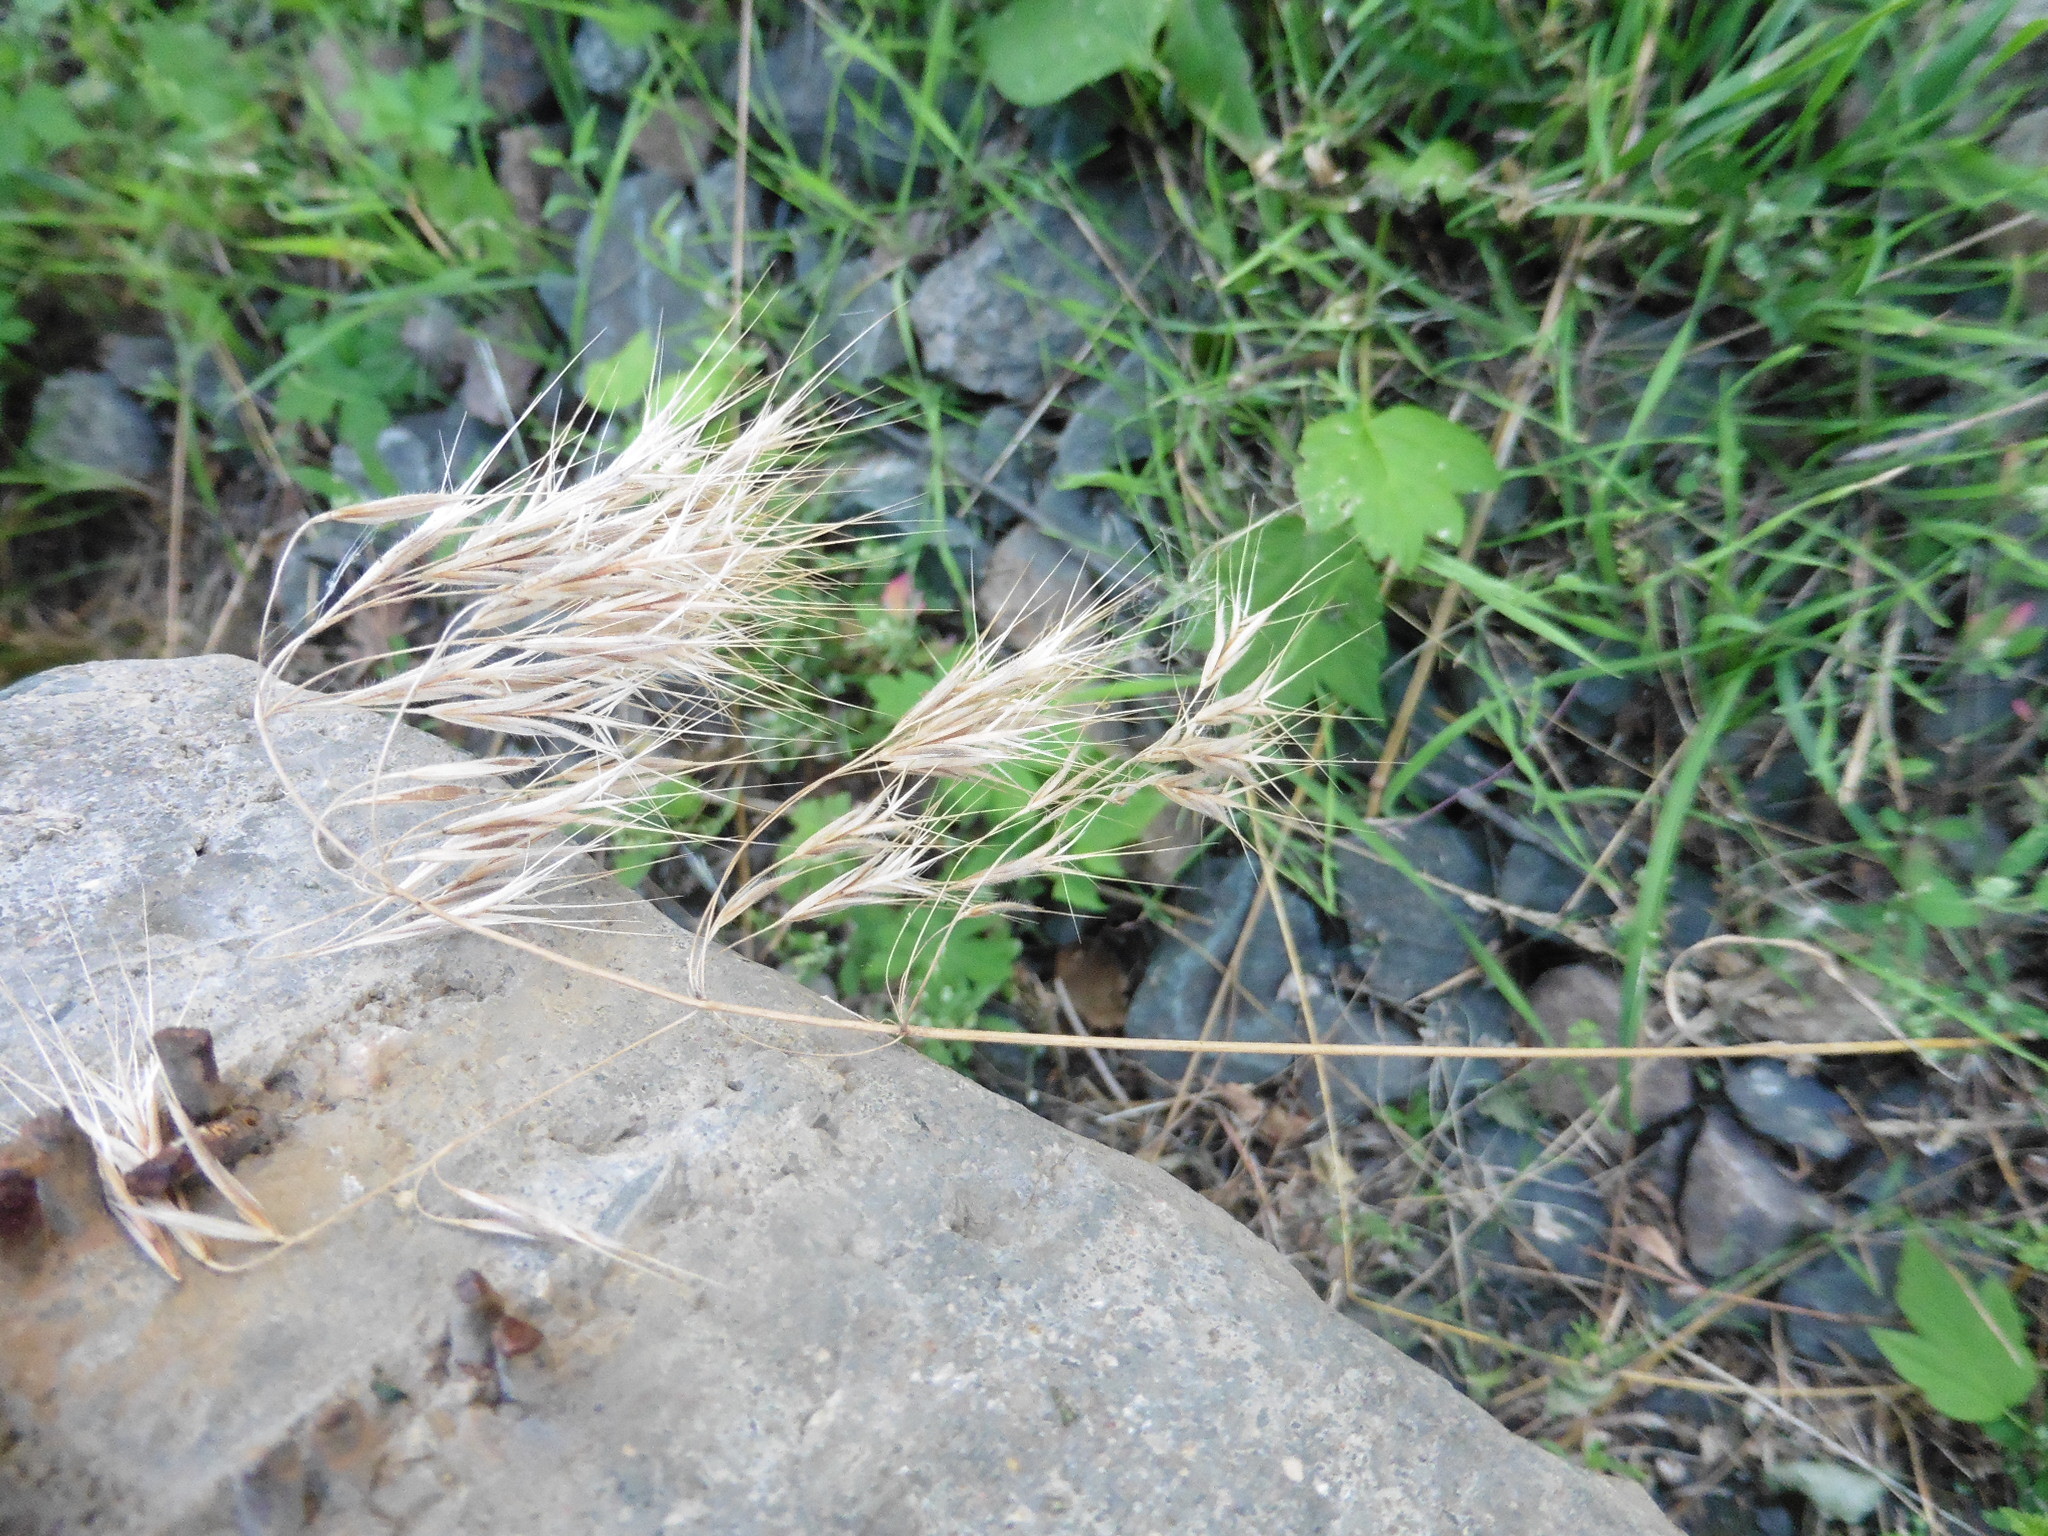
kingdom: Plantae
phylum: Tracheophyta
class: Liliopsida
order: Poales
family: Poaceae
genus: Bromus
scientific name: Bromus tectorum
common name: Cheatgrass
